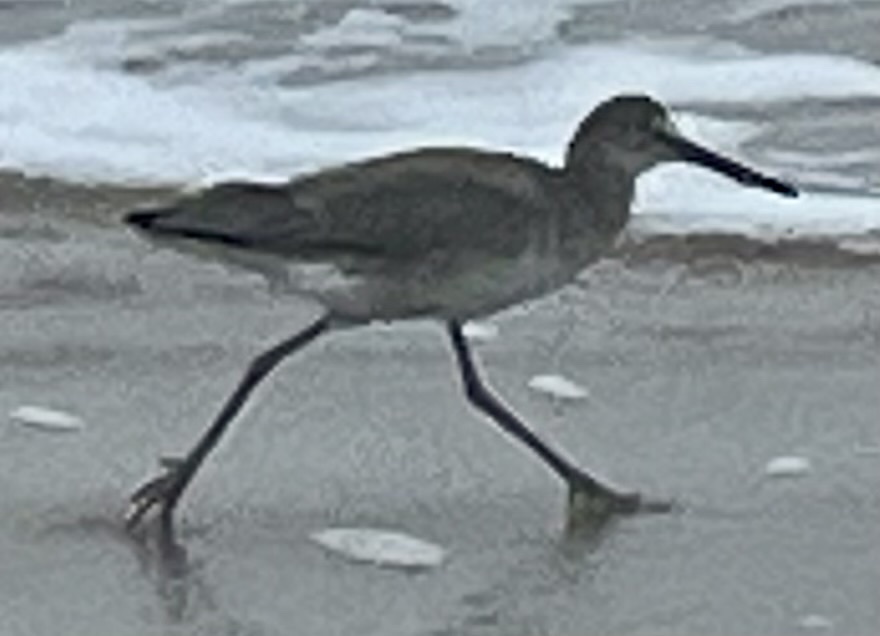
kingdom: Animalia
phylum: Chordata
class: Aves
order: Charadriiformes
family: Scolopacidae
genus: Tringa
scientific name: Tringa semipalmata
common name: Willet
